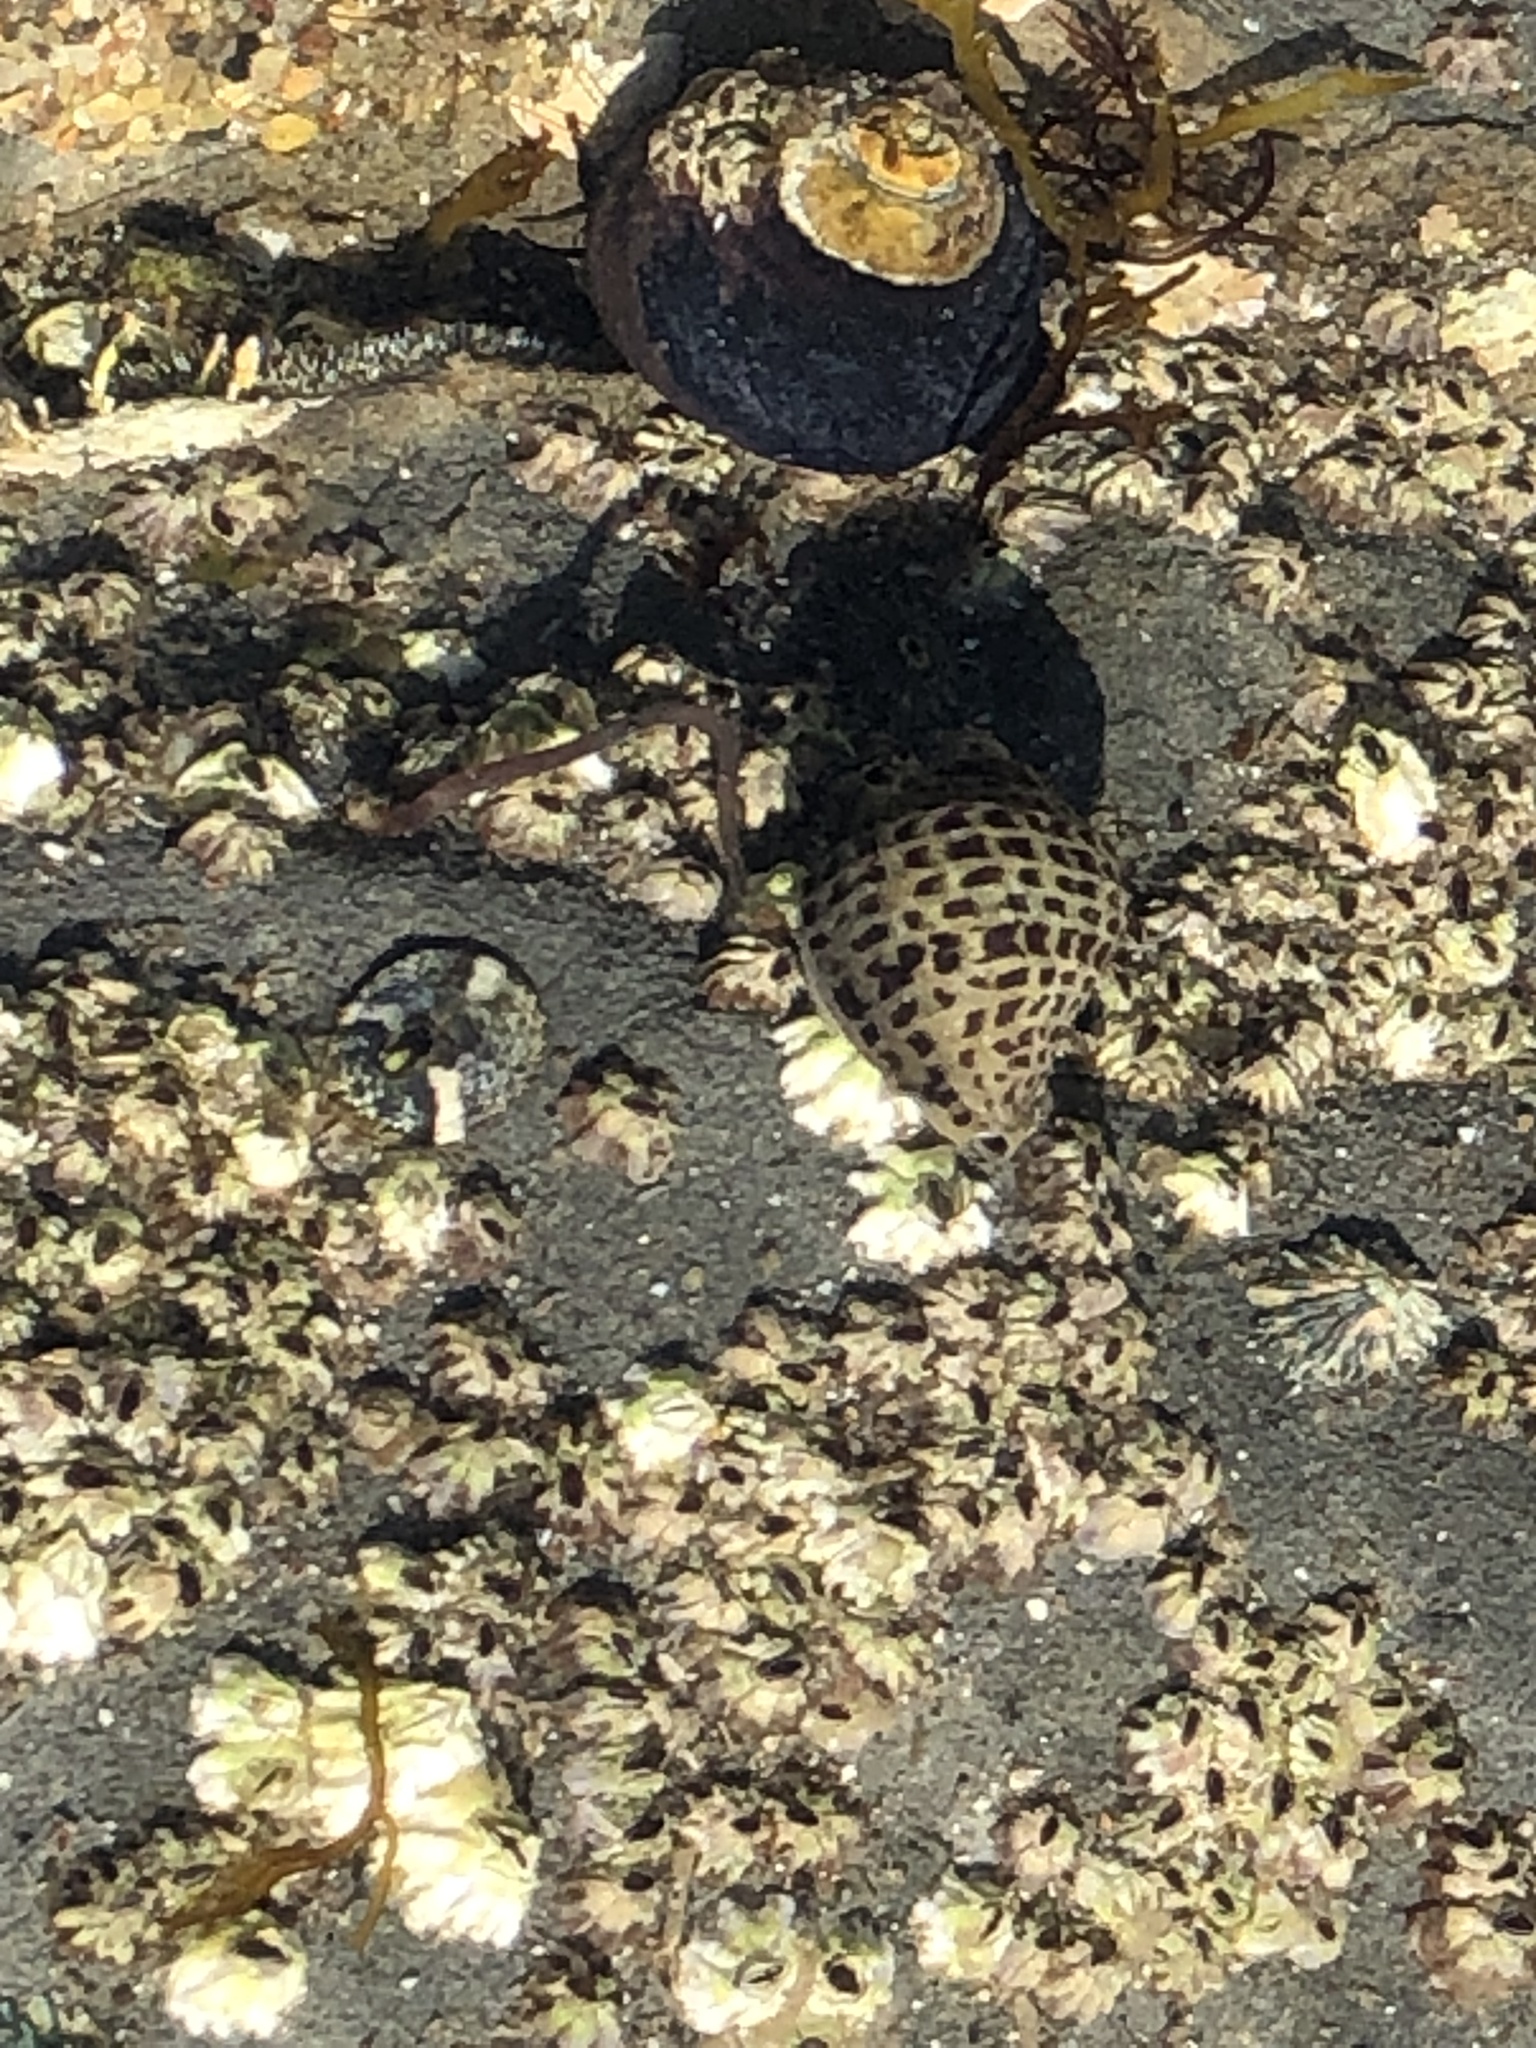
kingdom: Animalia
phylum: Mollusca
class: Gastropoda
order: Neogastropoda
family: Muricidae
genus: Acanthinucella
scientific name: Acanthinucella punctulata
